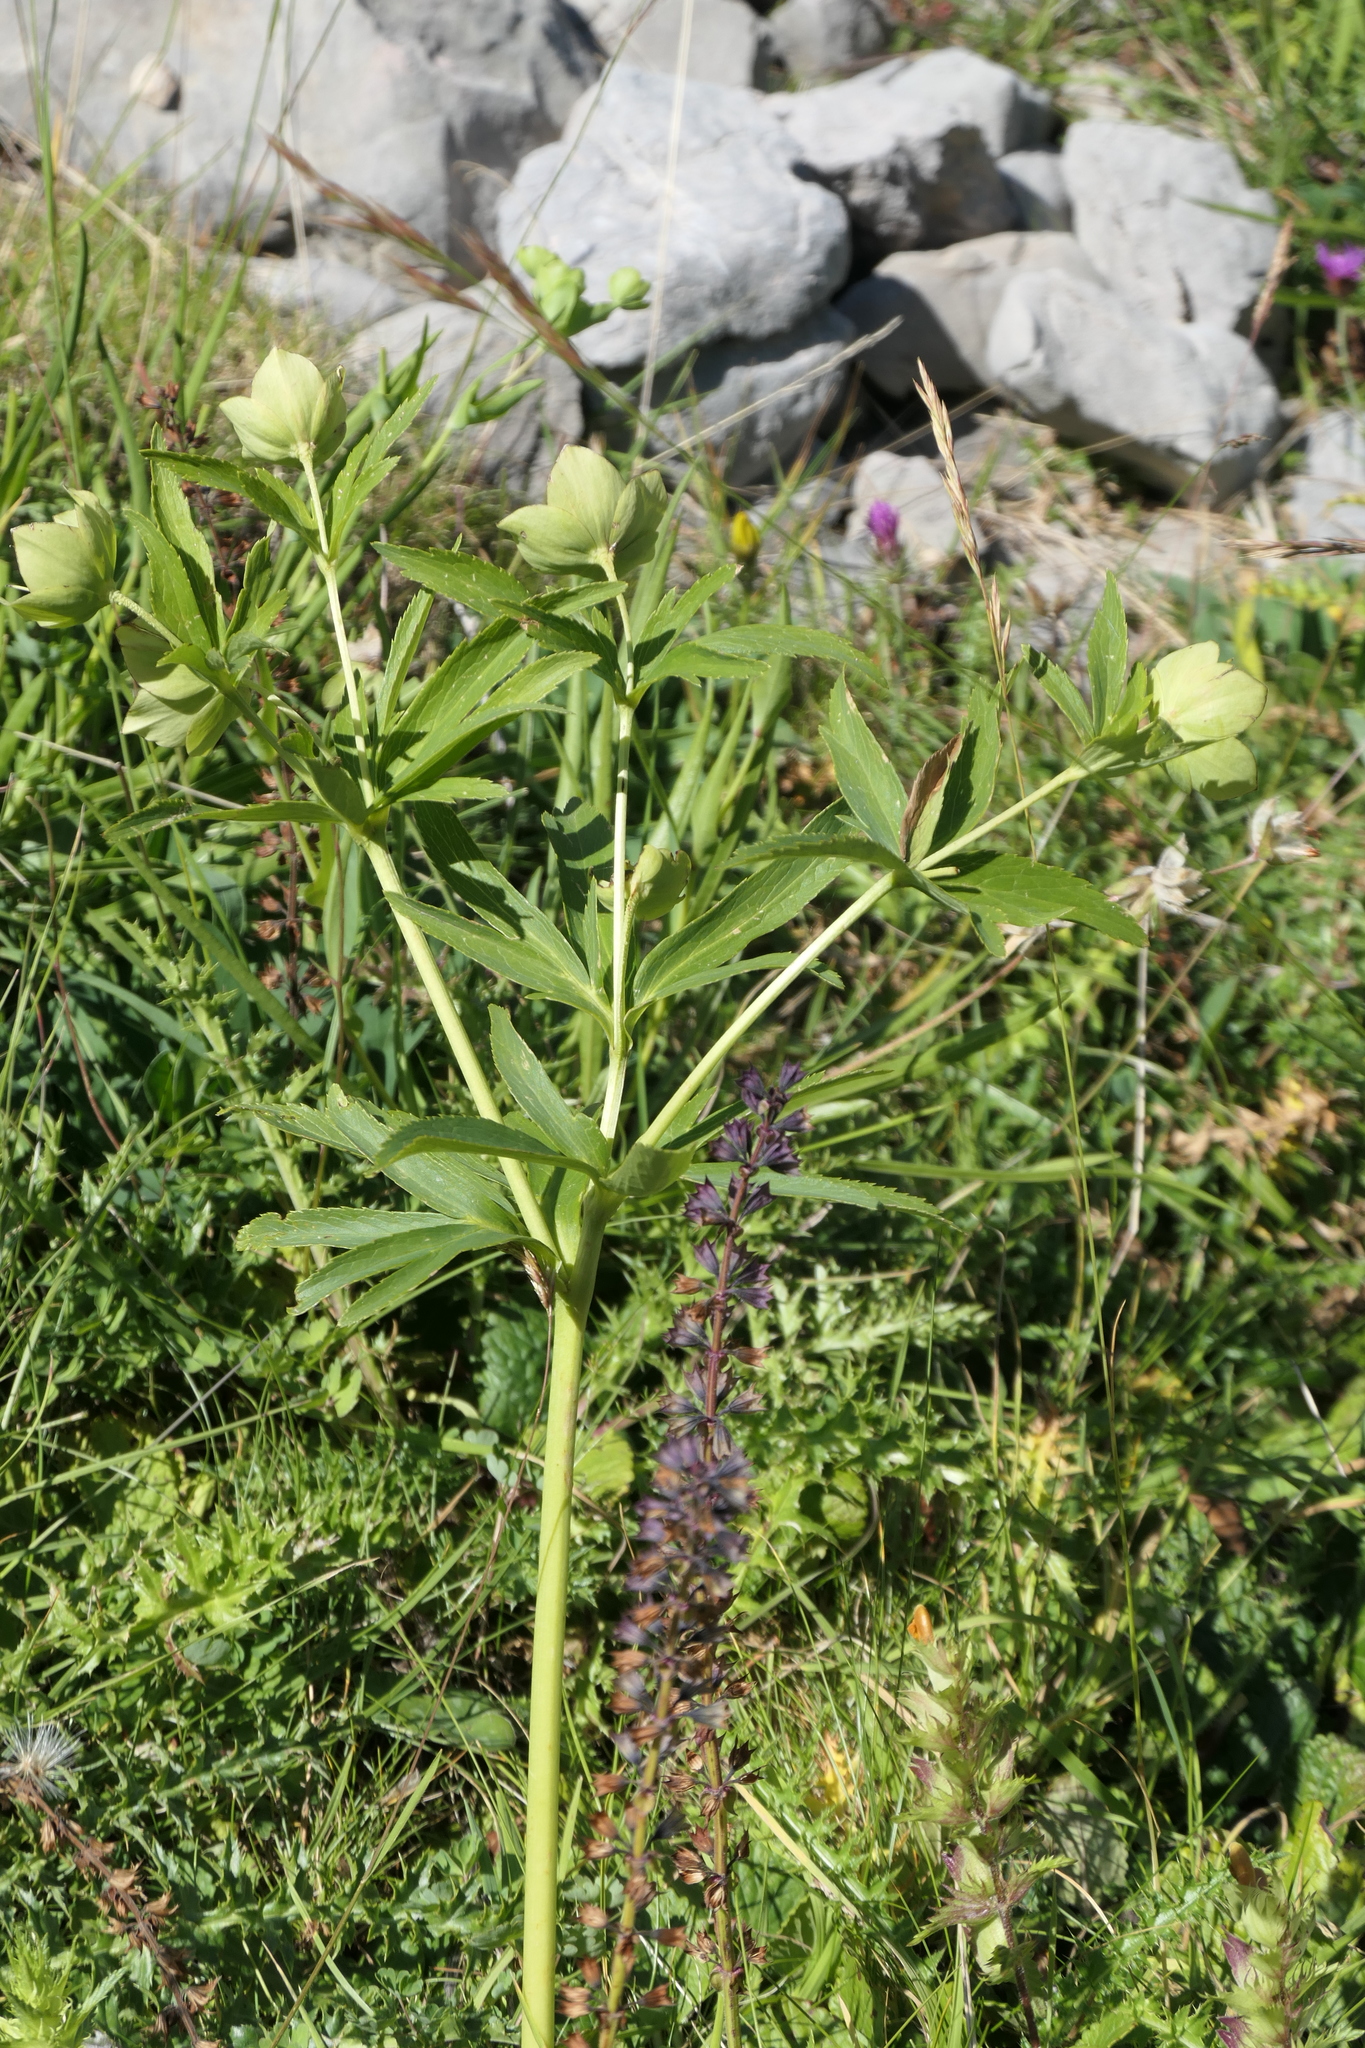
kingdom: Plantae
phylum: Tracheophyta
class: Magnoliopsida
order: Ranunculales
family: Ranunculaceae
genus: Helleborus
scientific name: Helleborus viridis
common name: Green hellebore
